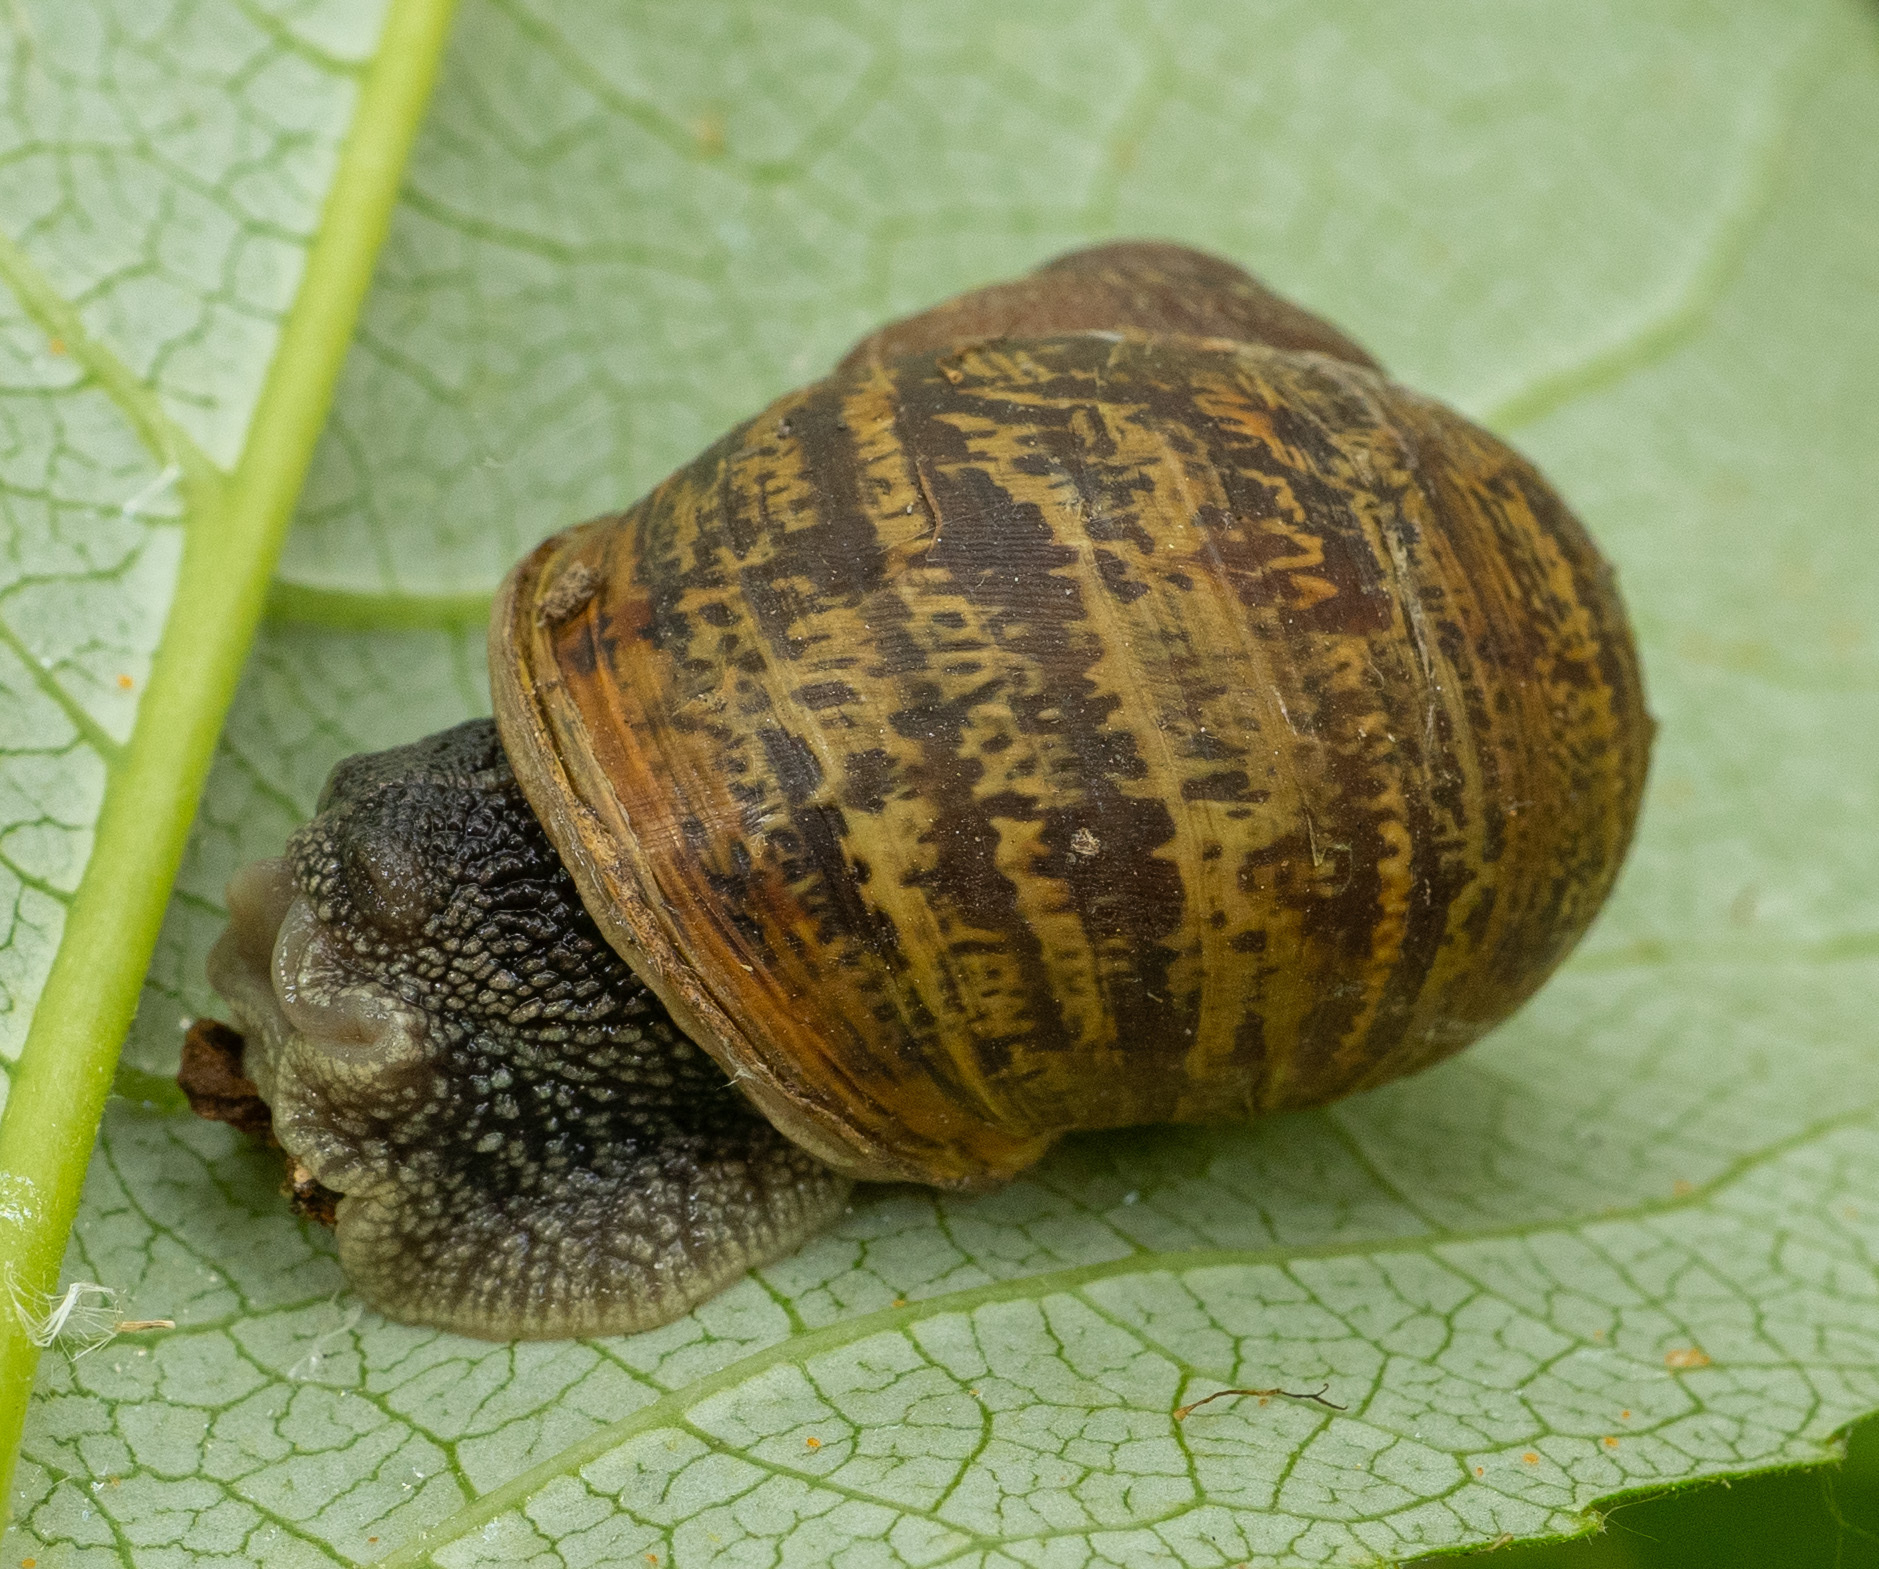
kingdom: Animalia
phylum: Mollusca
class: Gastropoda
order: Stylommatophora
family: Helicidae
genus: Cornu
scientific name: Cornu aspersum
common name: Brown garden snail
